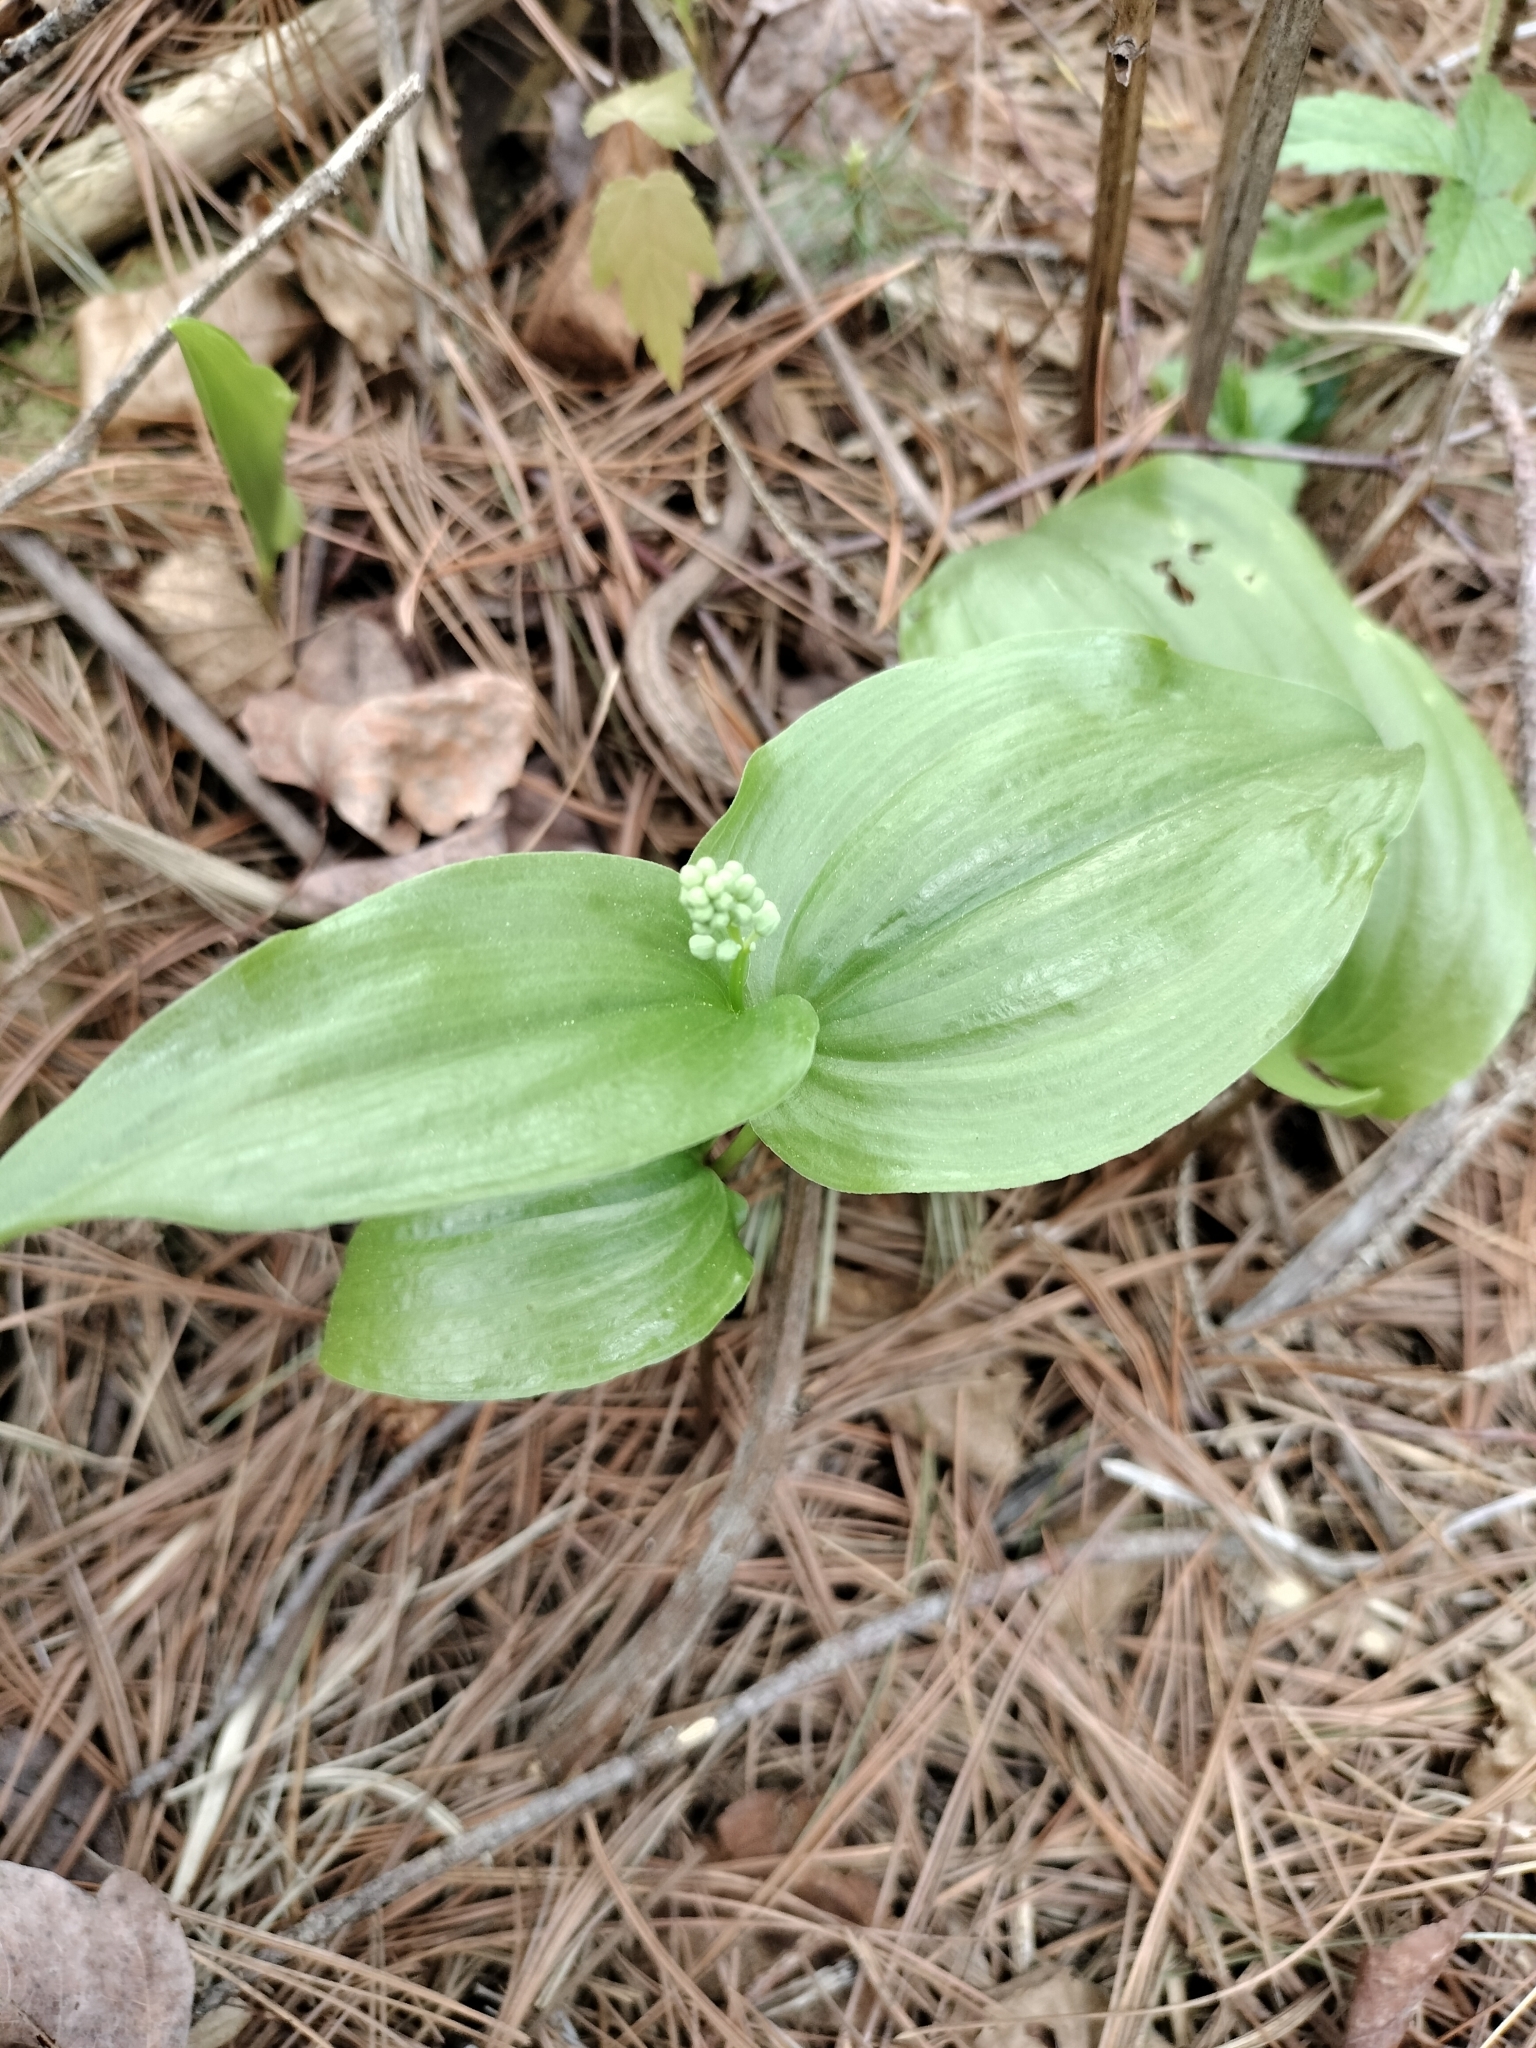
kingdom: Plantae
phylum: Tracheophyta
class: Liliopsida
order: Asparagales
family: Asparagaceae
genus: Maianthemum
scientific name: Maianthemum canadense
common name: False lily-of-the-valley
